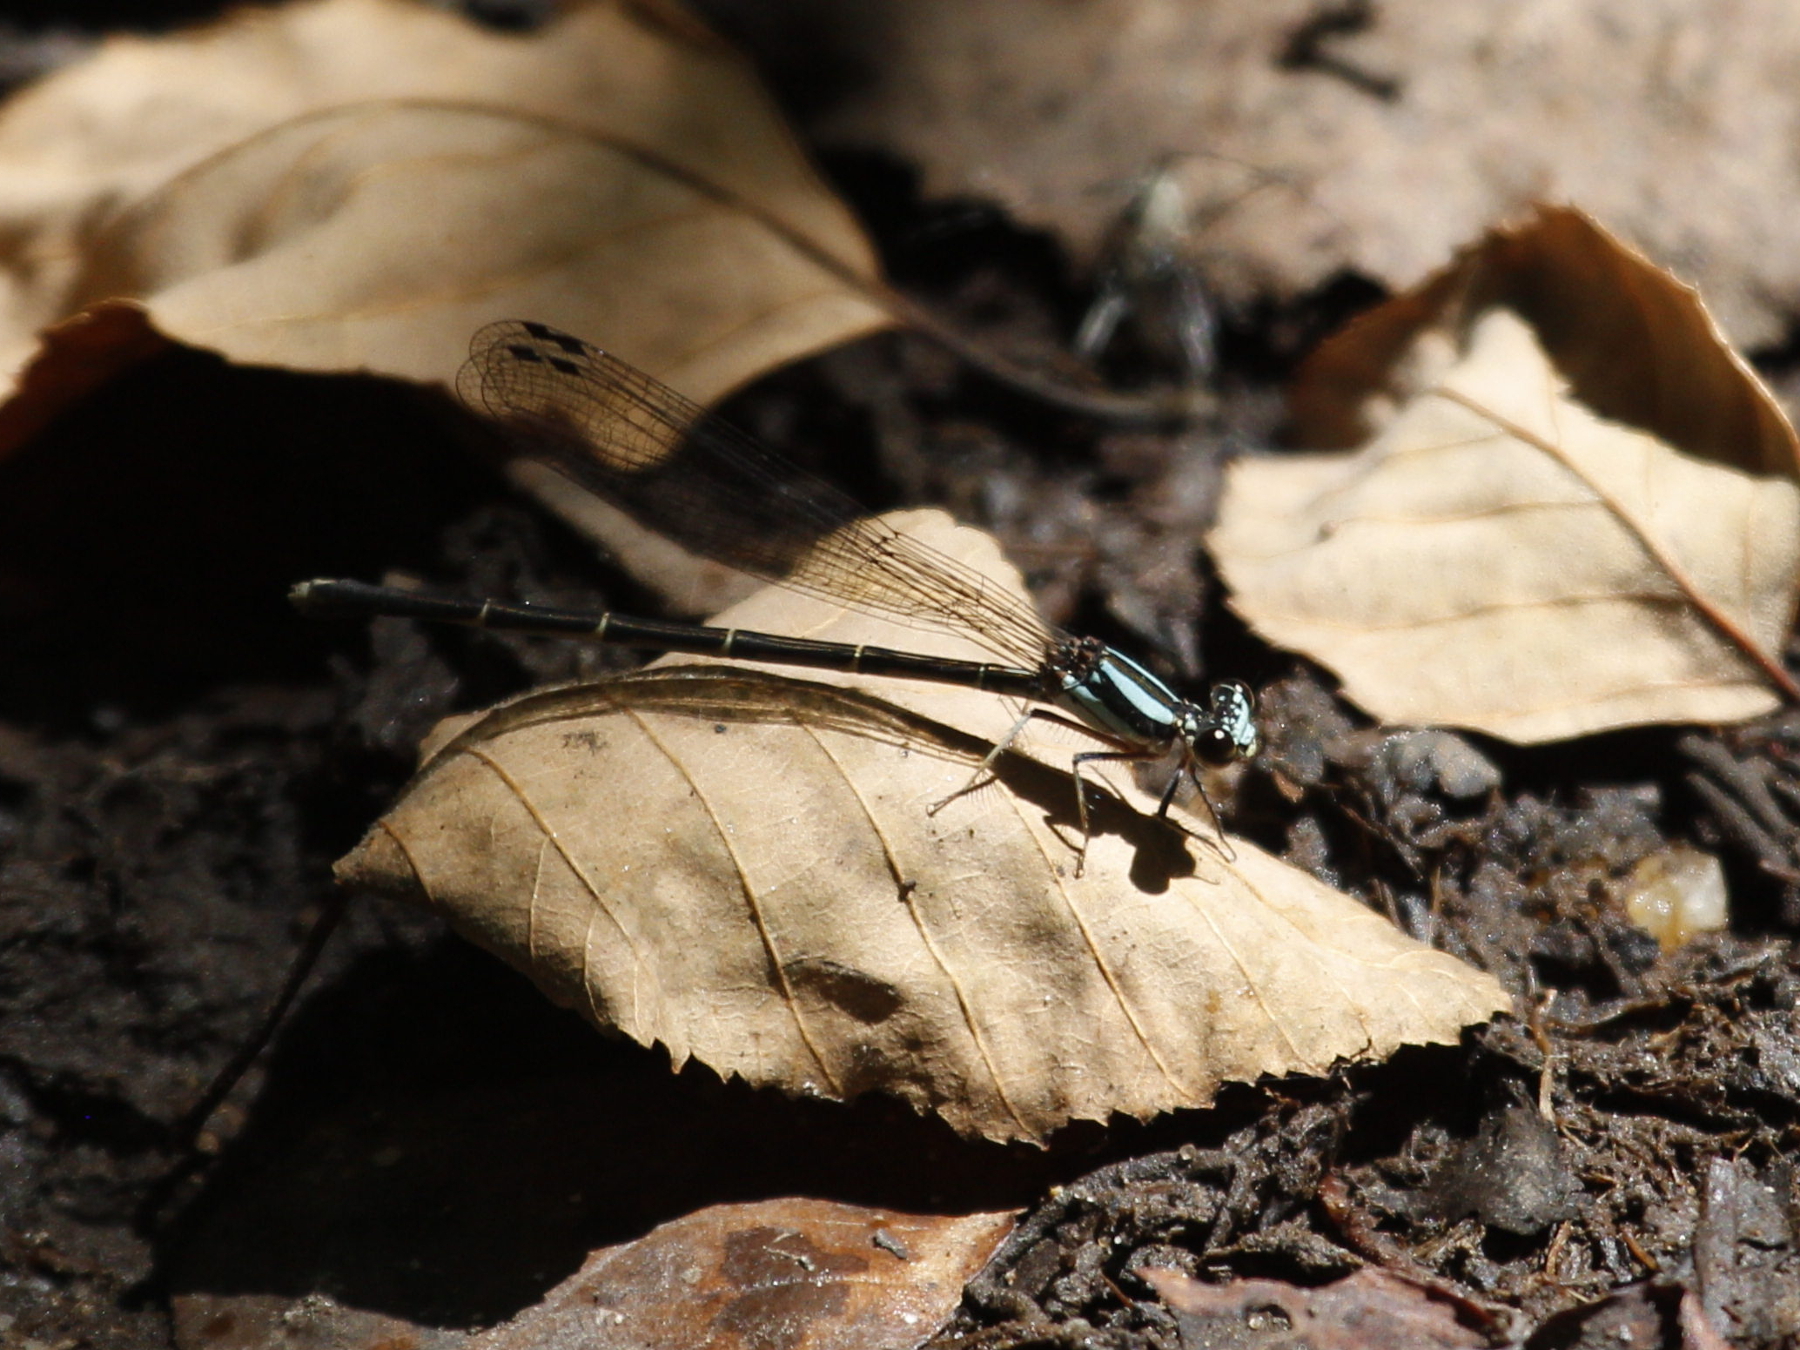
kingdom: Animalia
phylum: Arthropoda
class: Insecta
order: Odonata
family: Coenagrionidae
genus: Argia
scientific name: Argia tibialis
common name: Blue-tipped dancer
